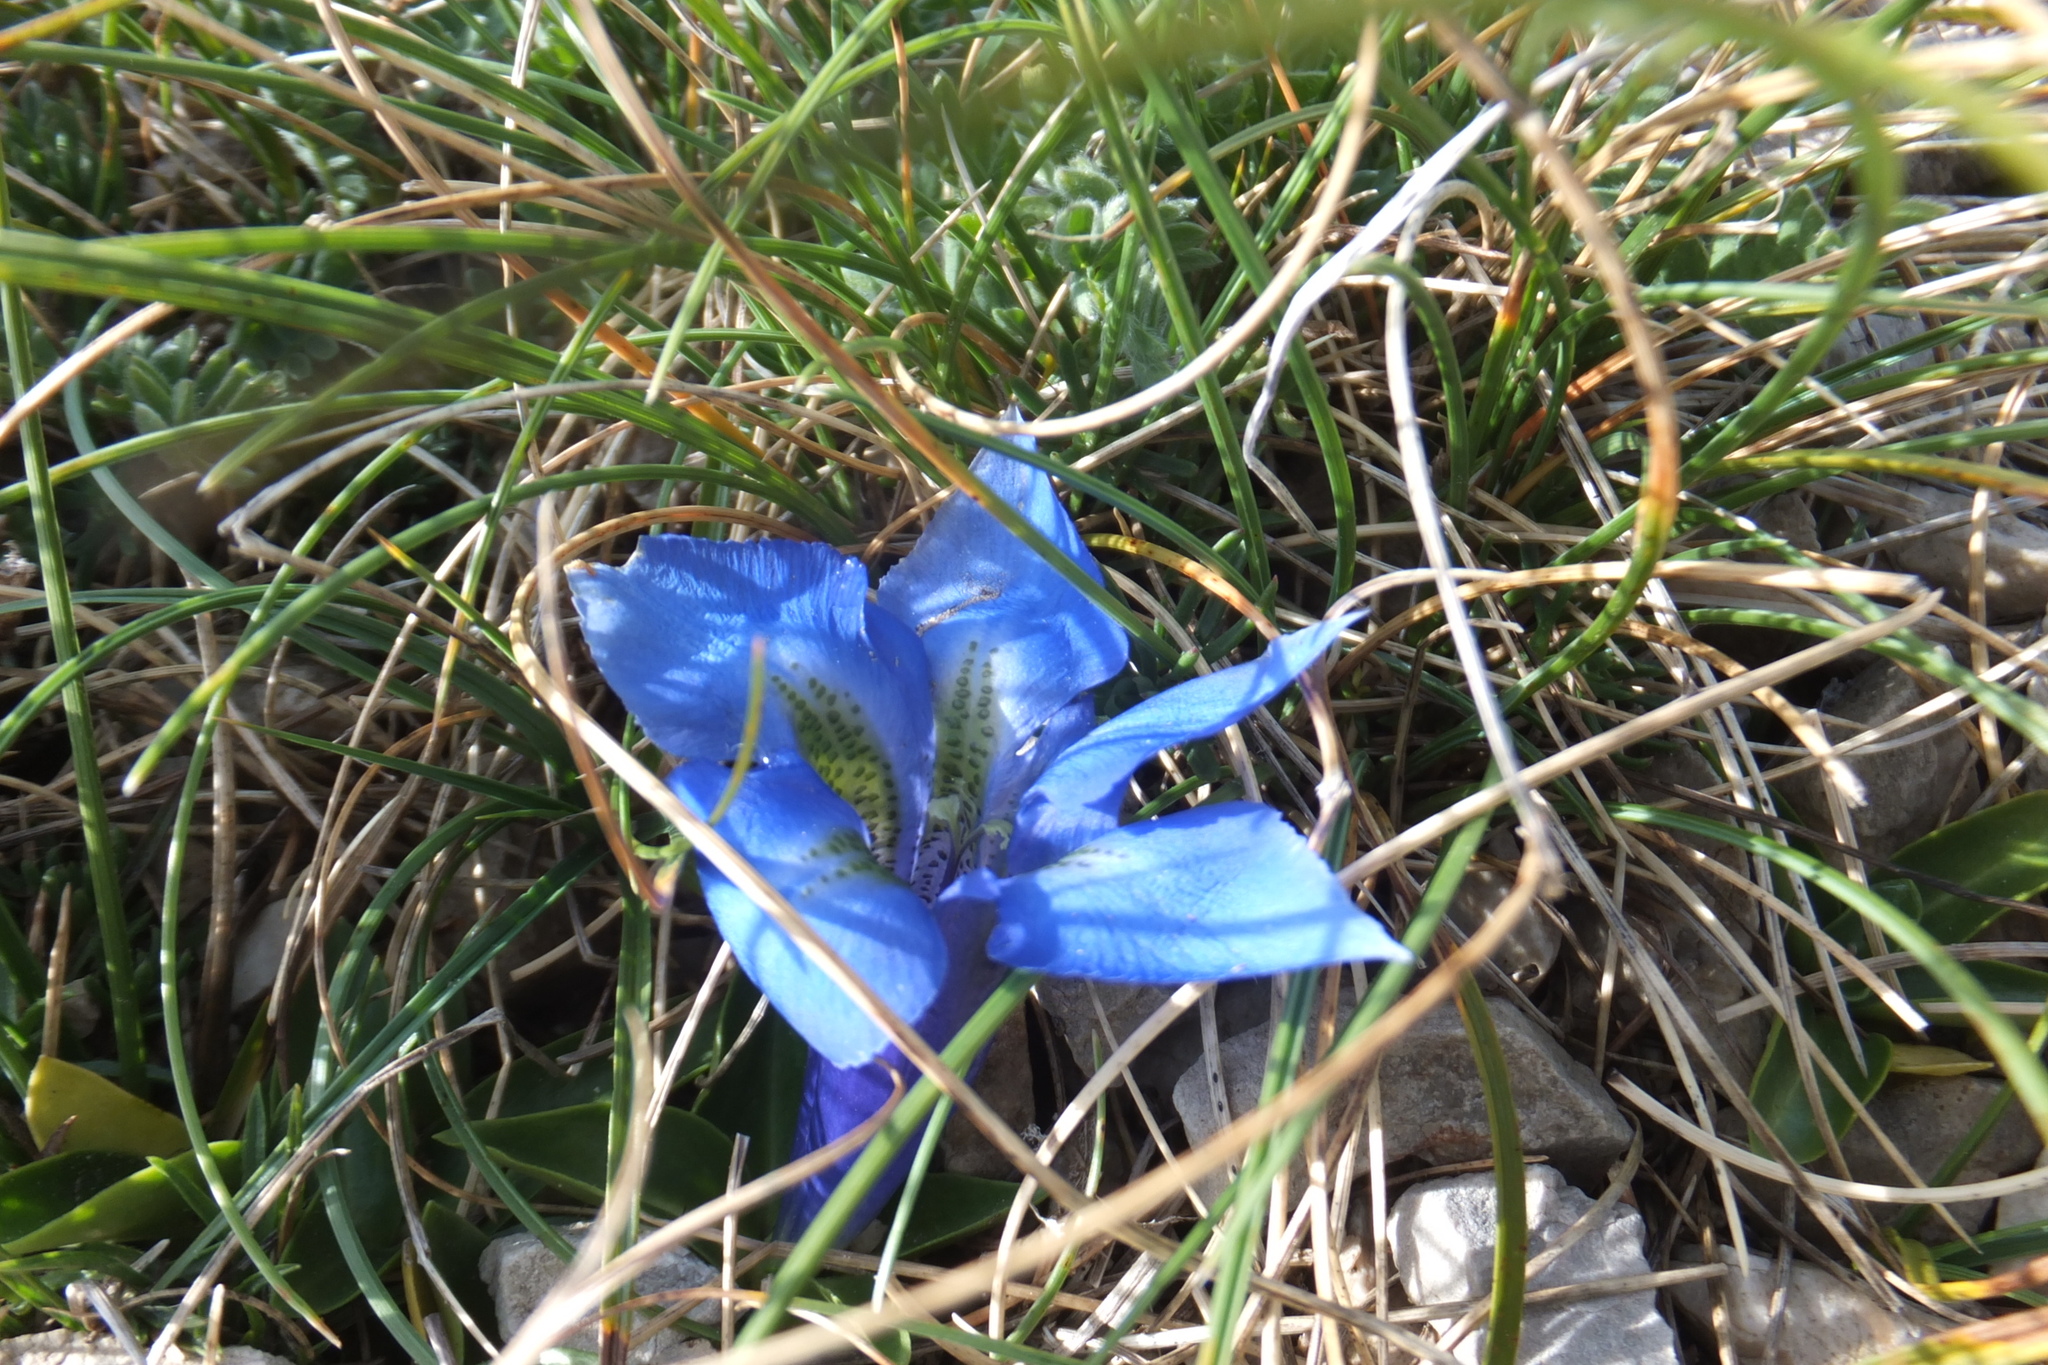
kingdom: Plantae
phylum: Tracheophyta
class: Magnoliopsida
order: Gentianales
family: Gentianaceae
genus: Gentiana
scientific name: Gentiana acaulis
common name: Trumpet gentian
